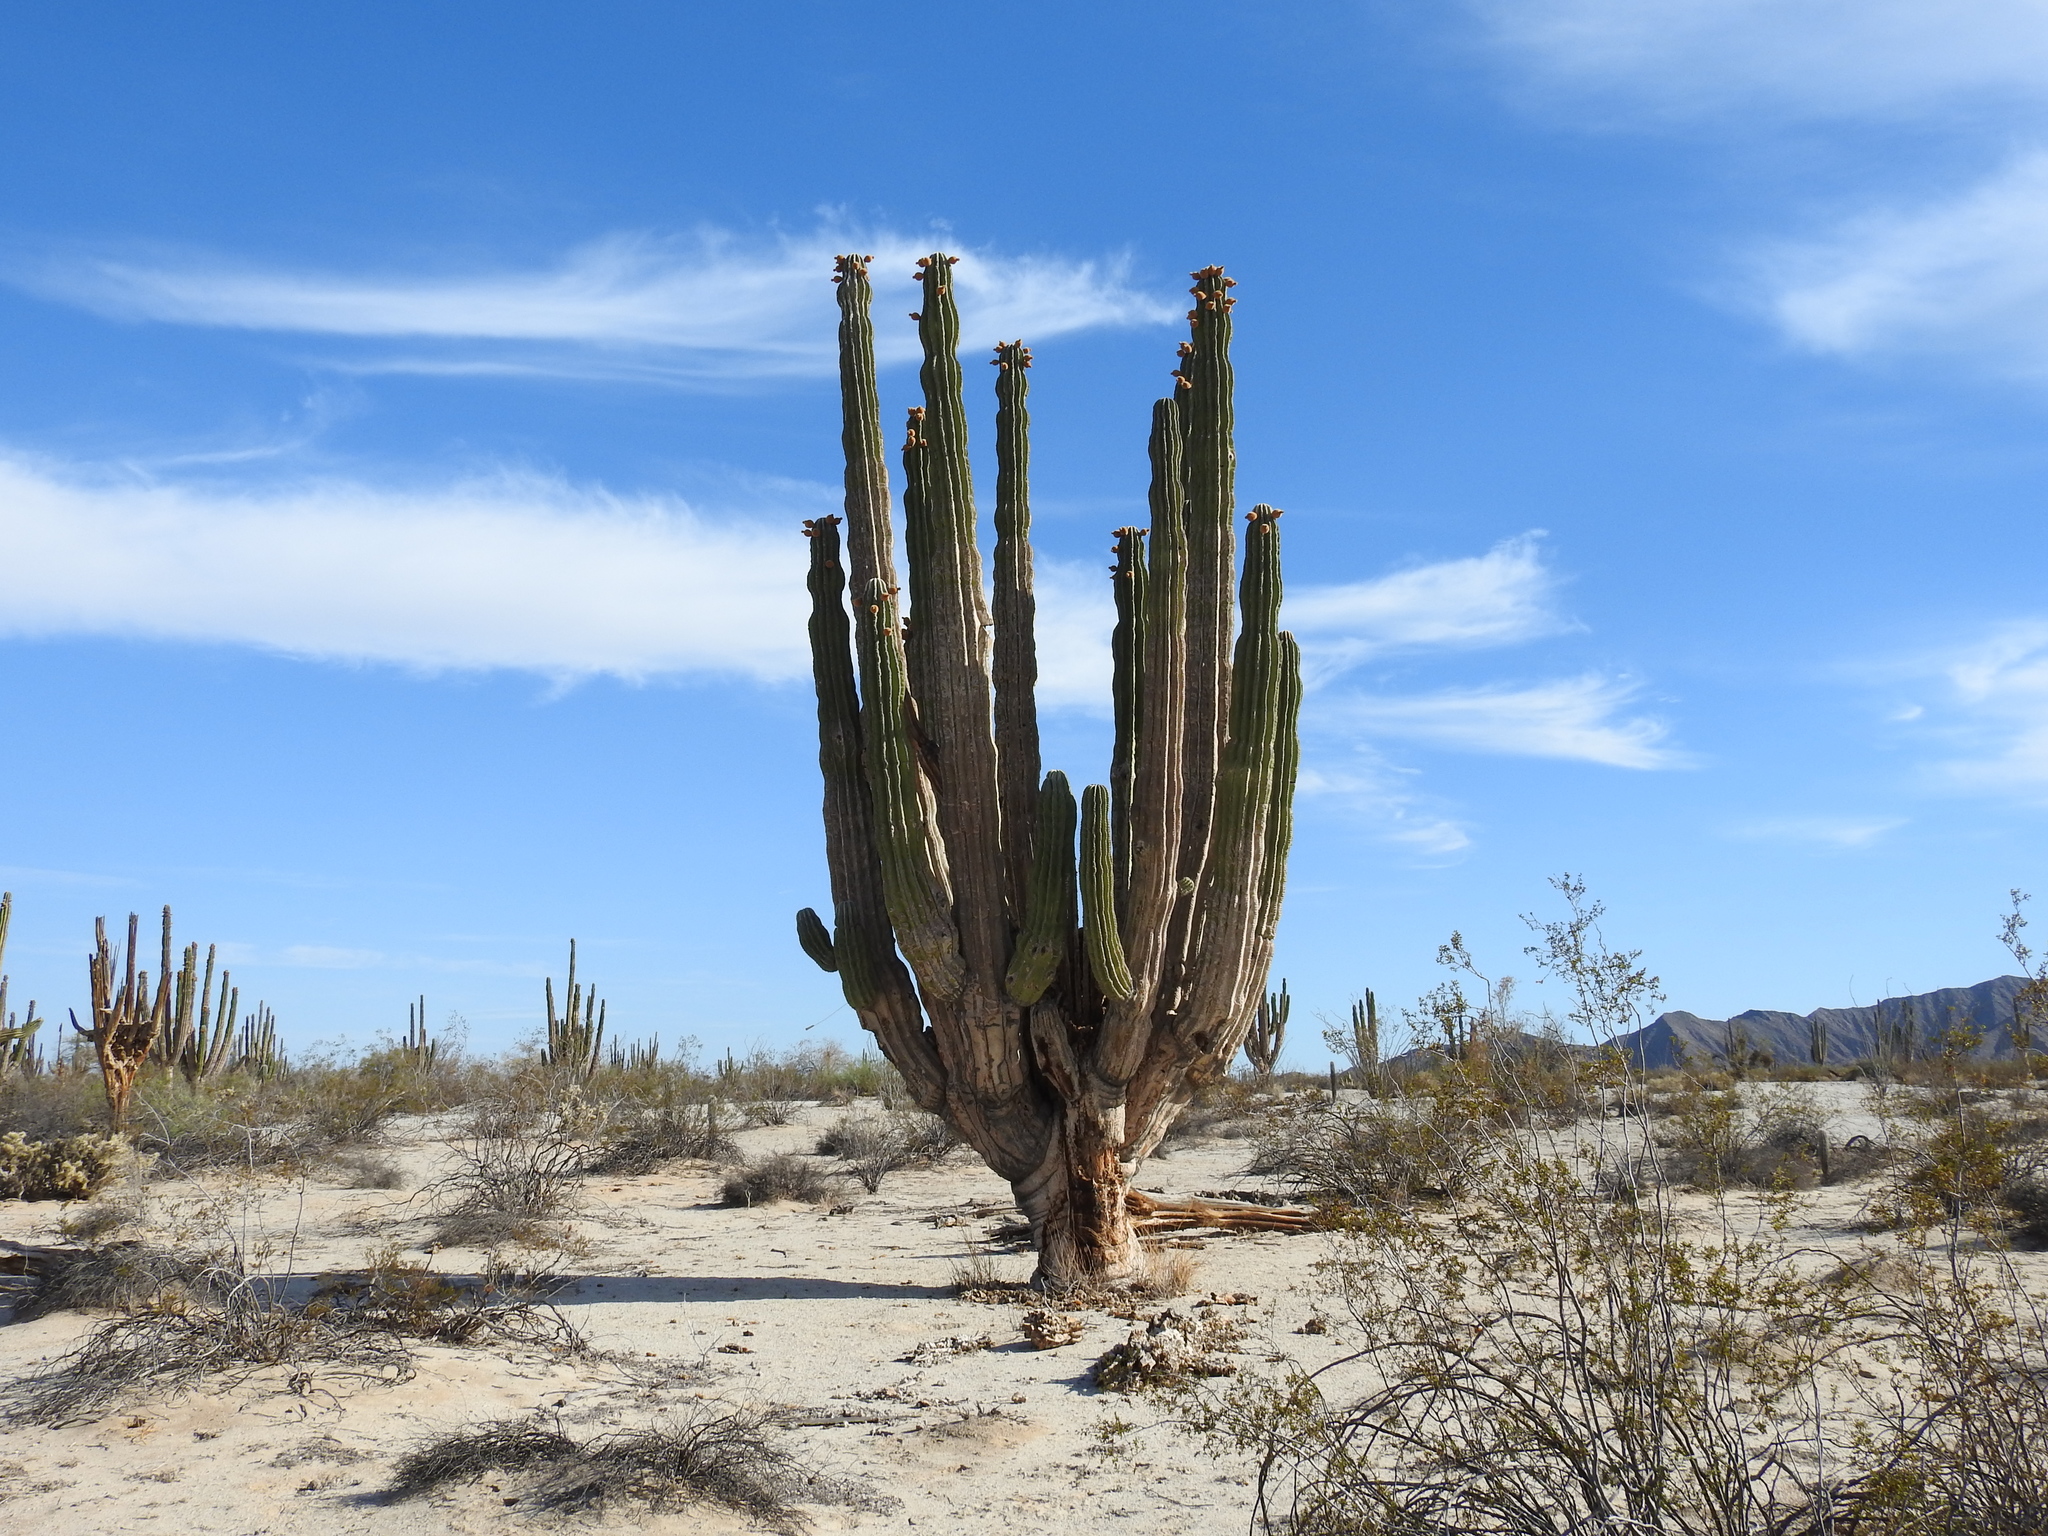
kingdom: Plantae
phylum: Tracheophyta
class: Magnoliopsida
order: Caryophyllales
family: Cactaceae
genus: Pachycereus
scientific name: Pachycereus pringlei
